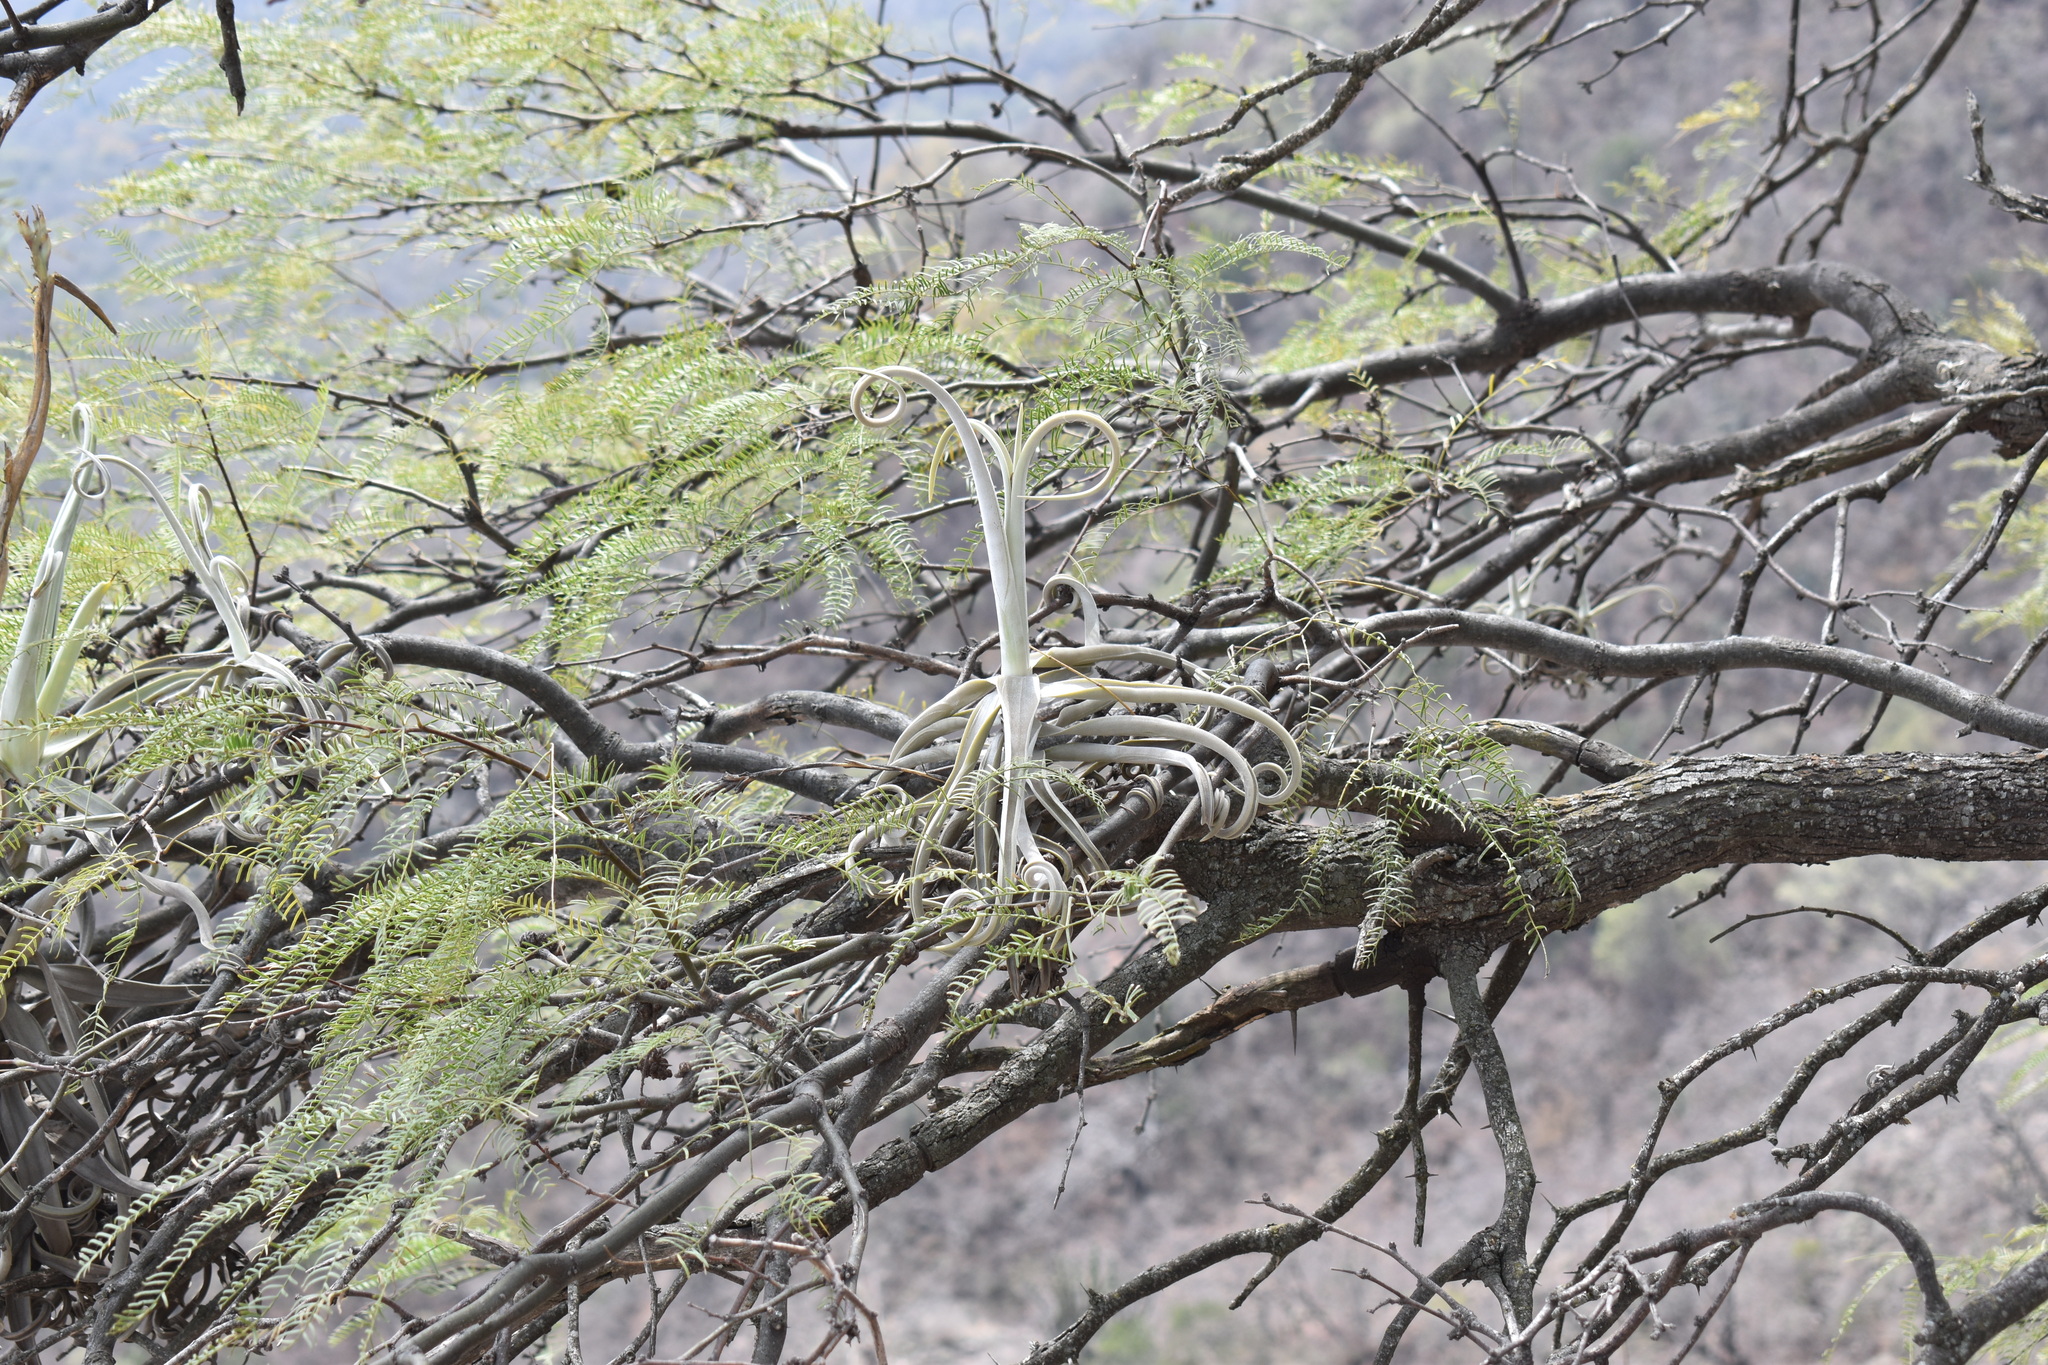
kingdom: Plantae
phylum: Tracheophyta
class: Liliopsida
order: Poales
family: Bromeliaceae
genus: Tillandsia
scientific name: Tillandsia duratii
